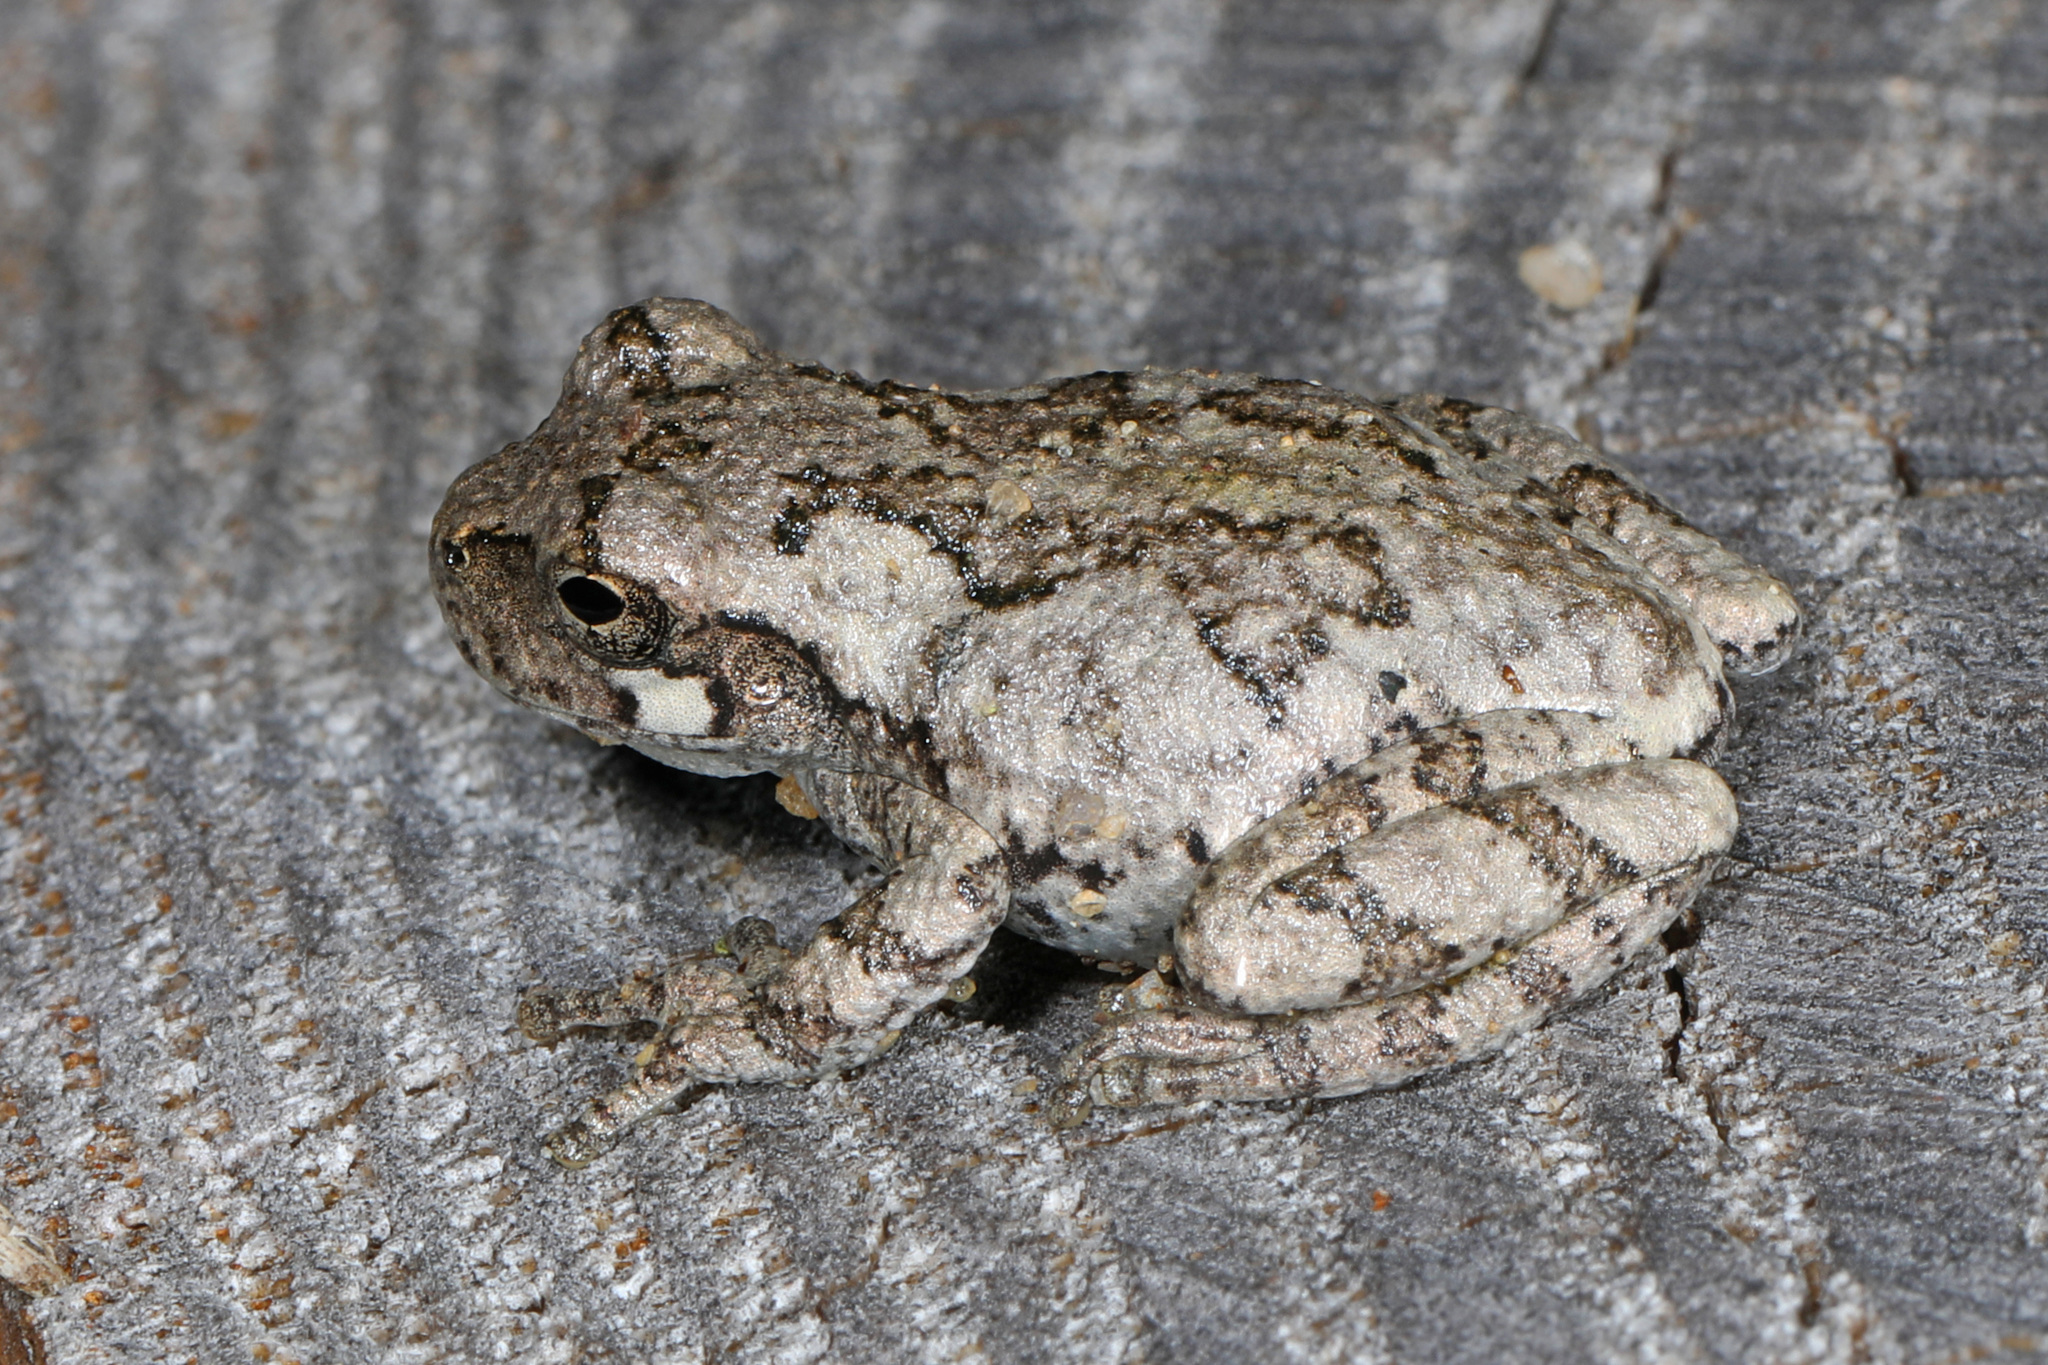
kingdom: Animalia
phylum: Chordata
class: Amphibia
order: Anura
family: Hylidae
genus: Hyla
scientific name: Hyla
